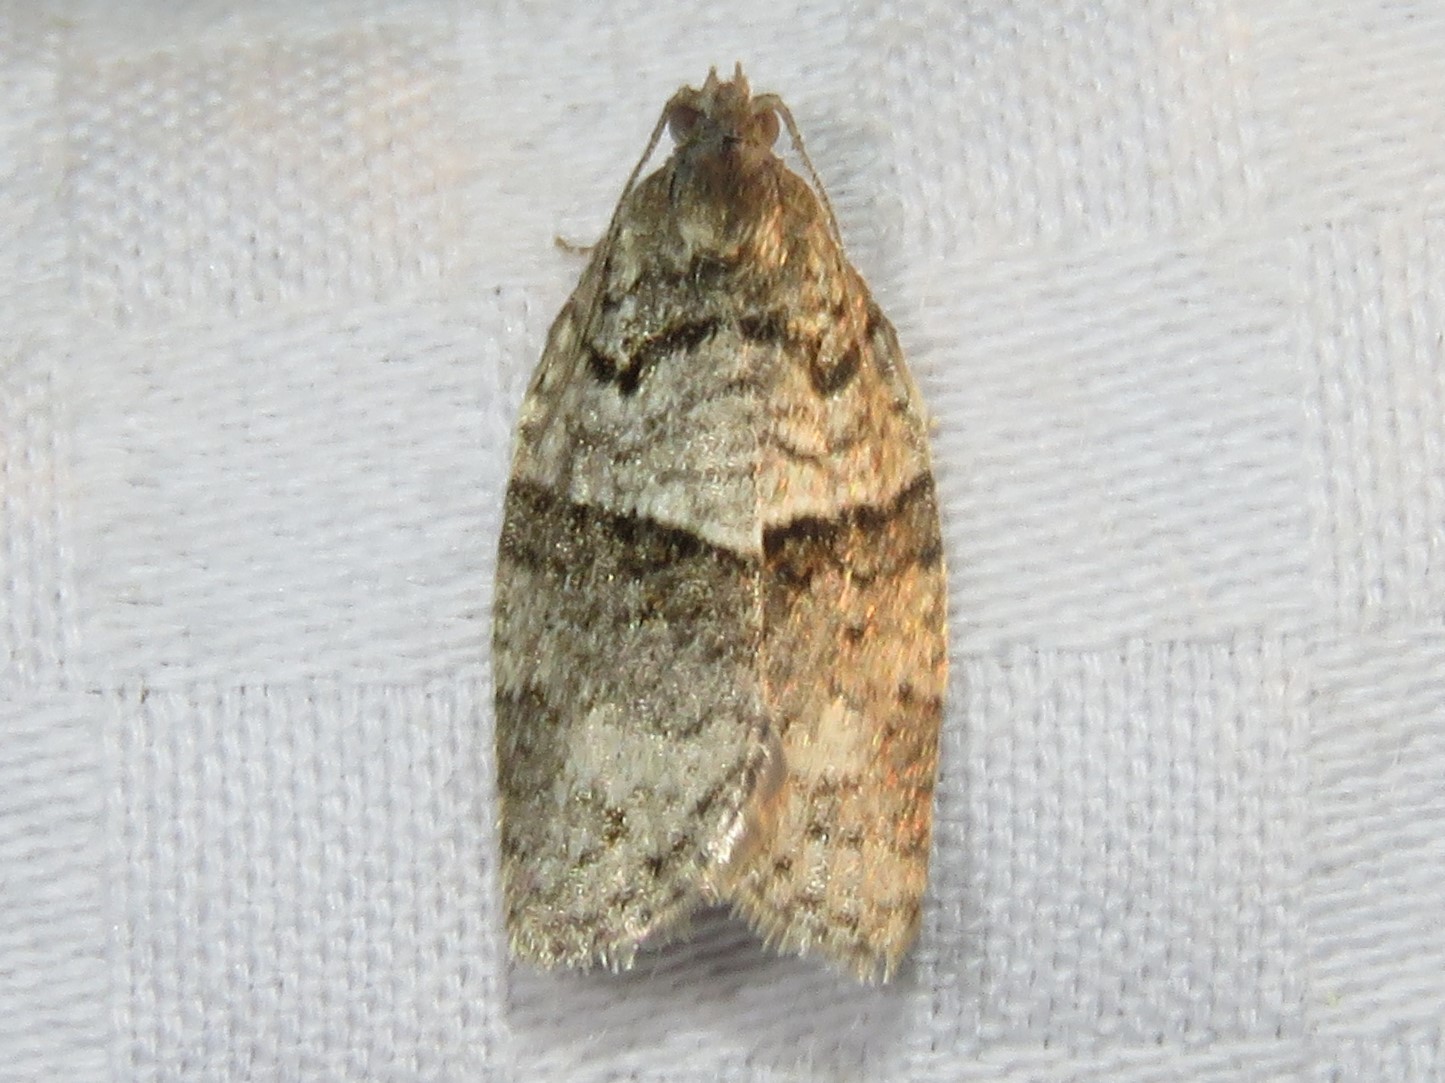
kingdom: Animalia
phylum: Arthropoda
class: Insecta
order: Lepidoptera
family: Tortricidae
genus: Syndemis
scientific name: Syndemis afflictana
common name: Gray leafroller moth
